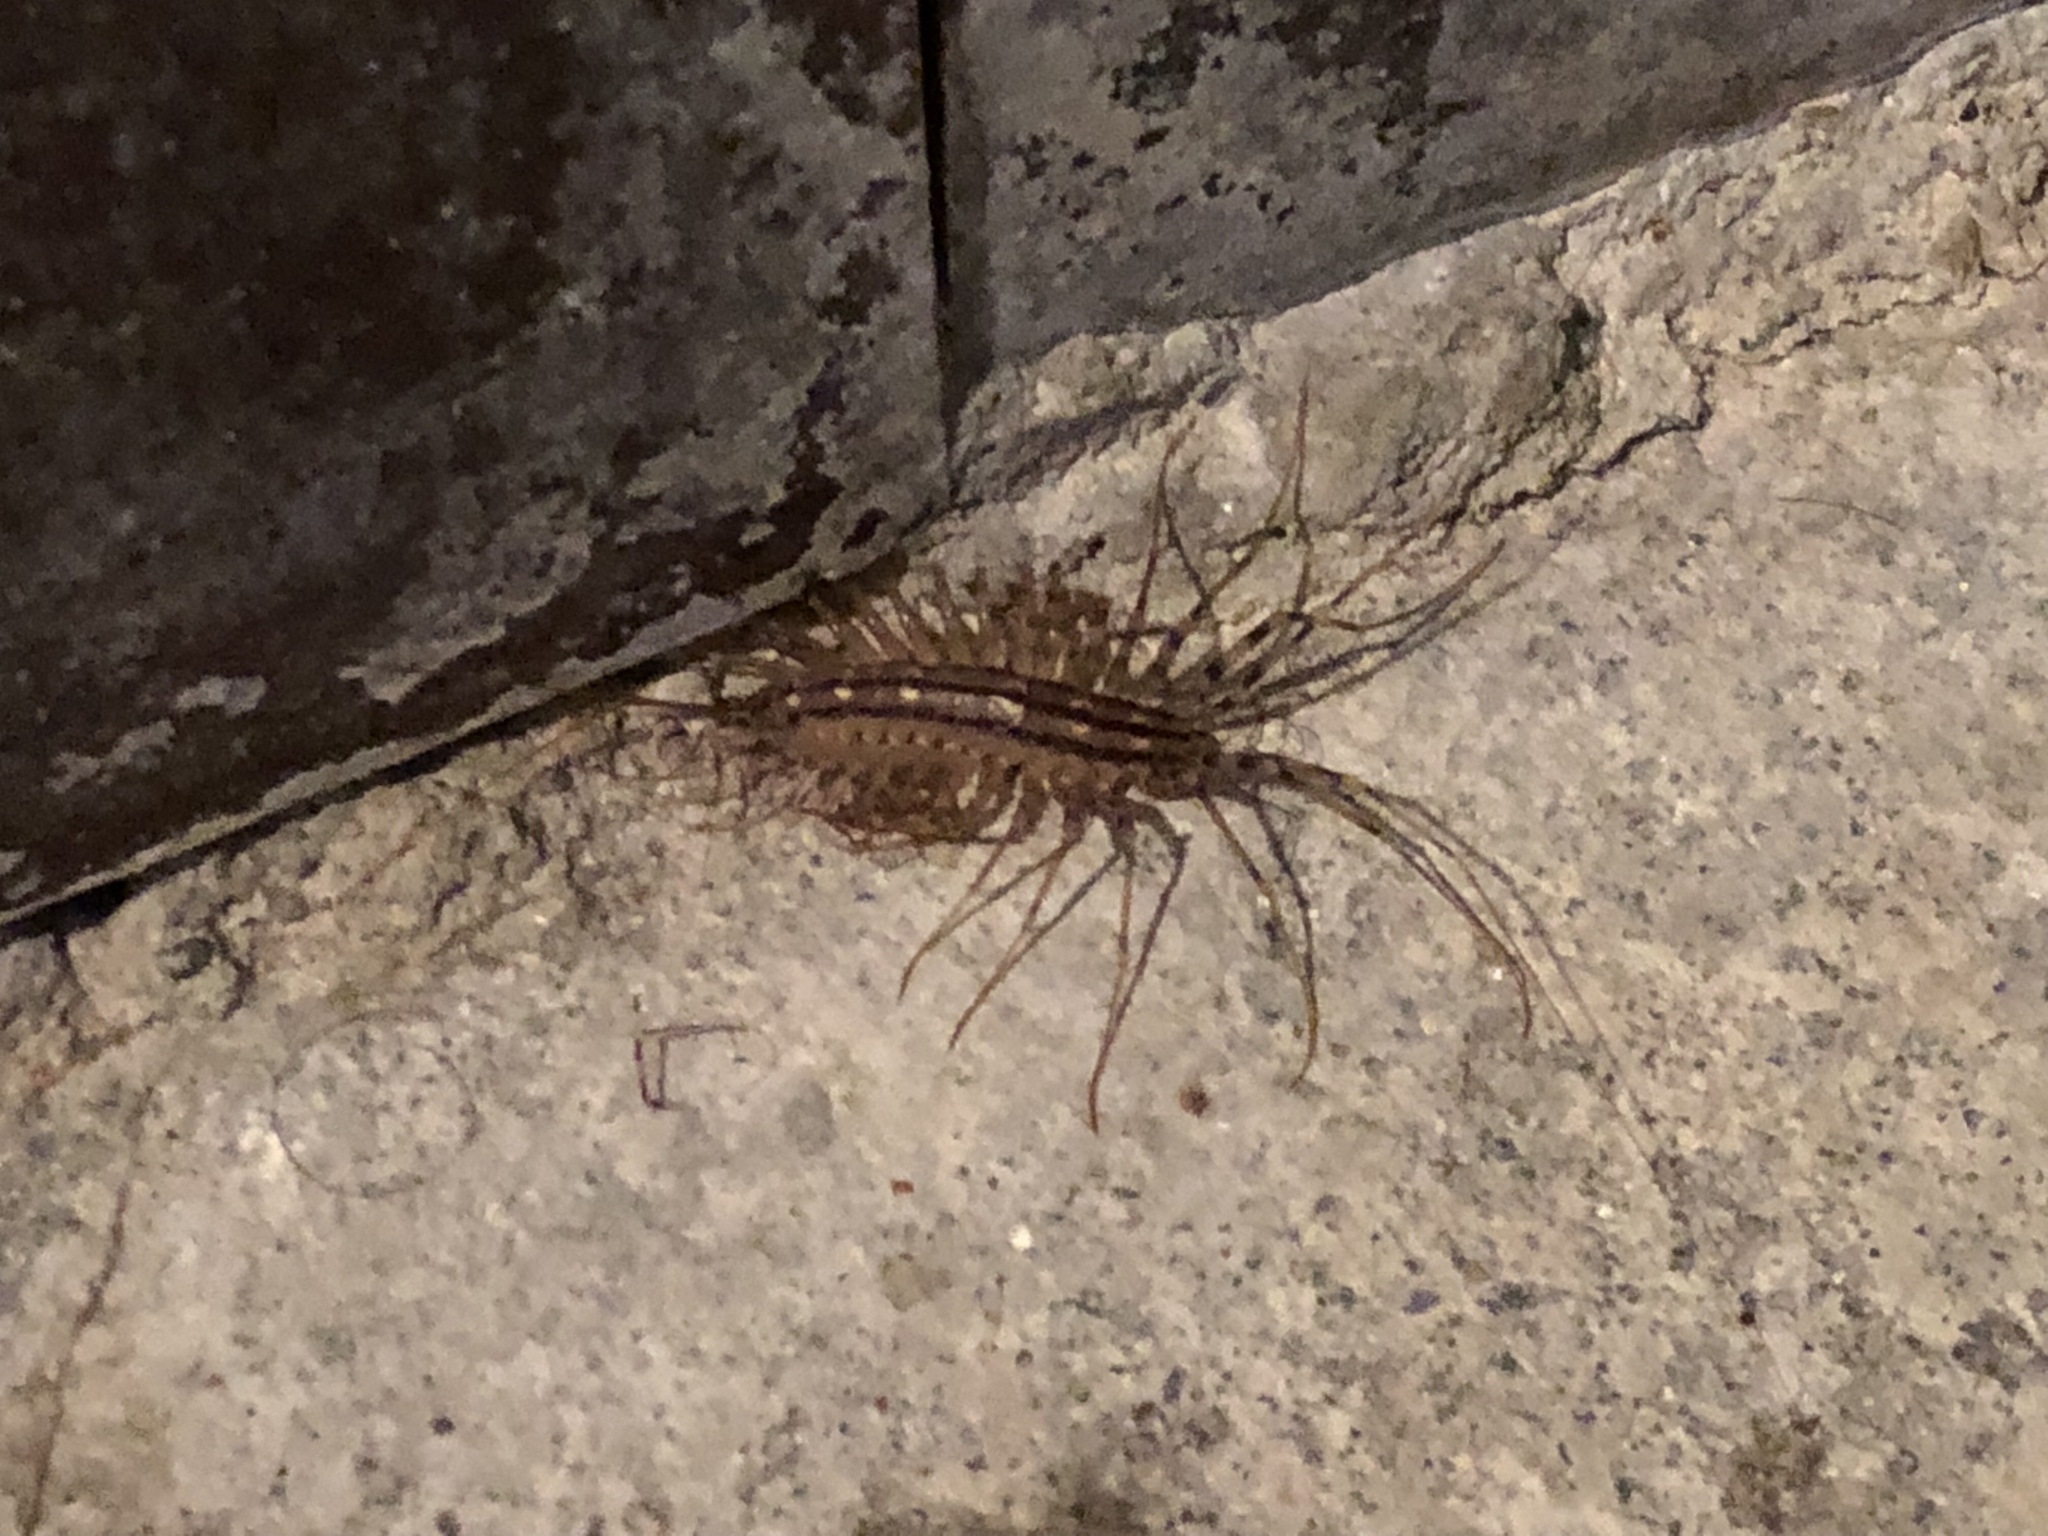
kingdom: Animalia
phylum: Arthropoda
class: Chilopoda
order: Scutigeromorpha
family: Scutigeridae
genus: Scutigera
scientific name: Scutigera coleoptrata
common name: House centipede
